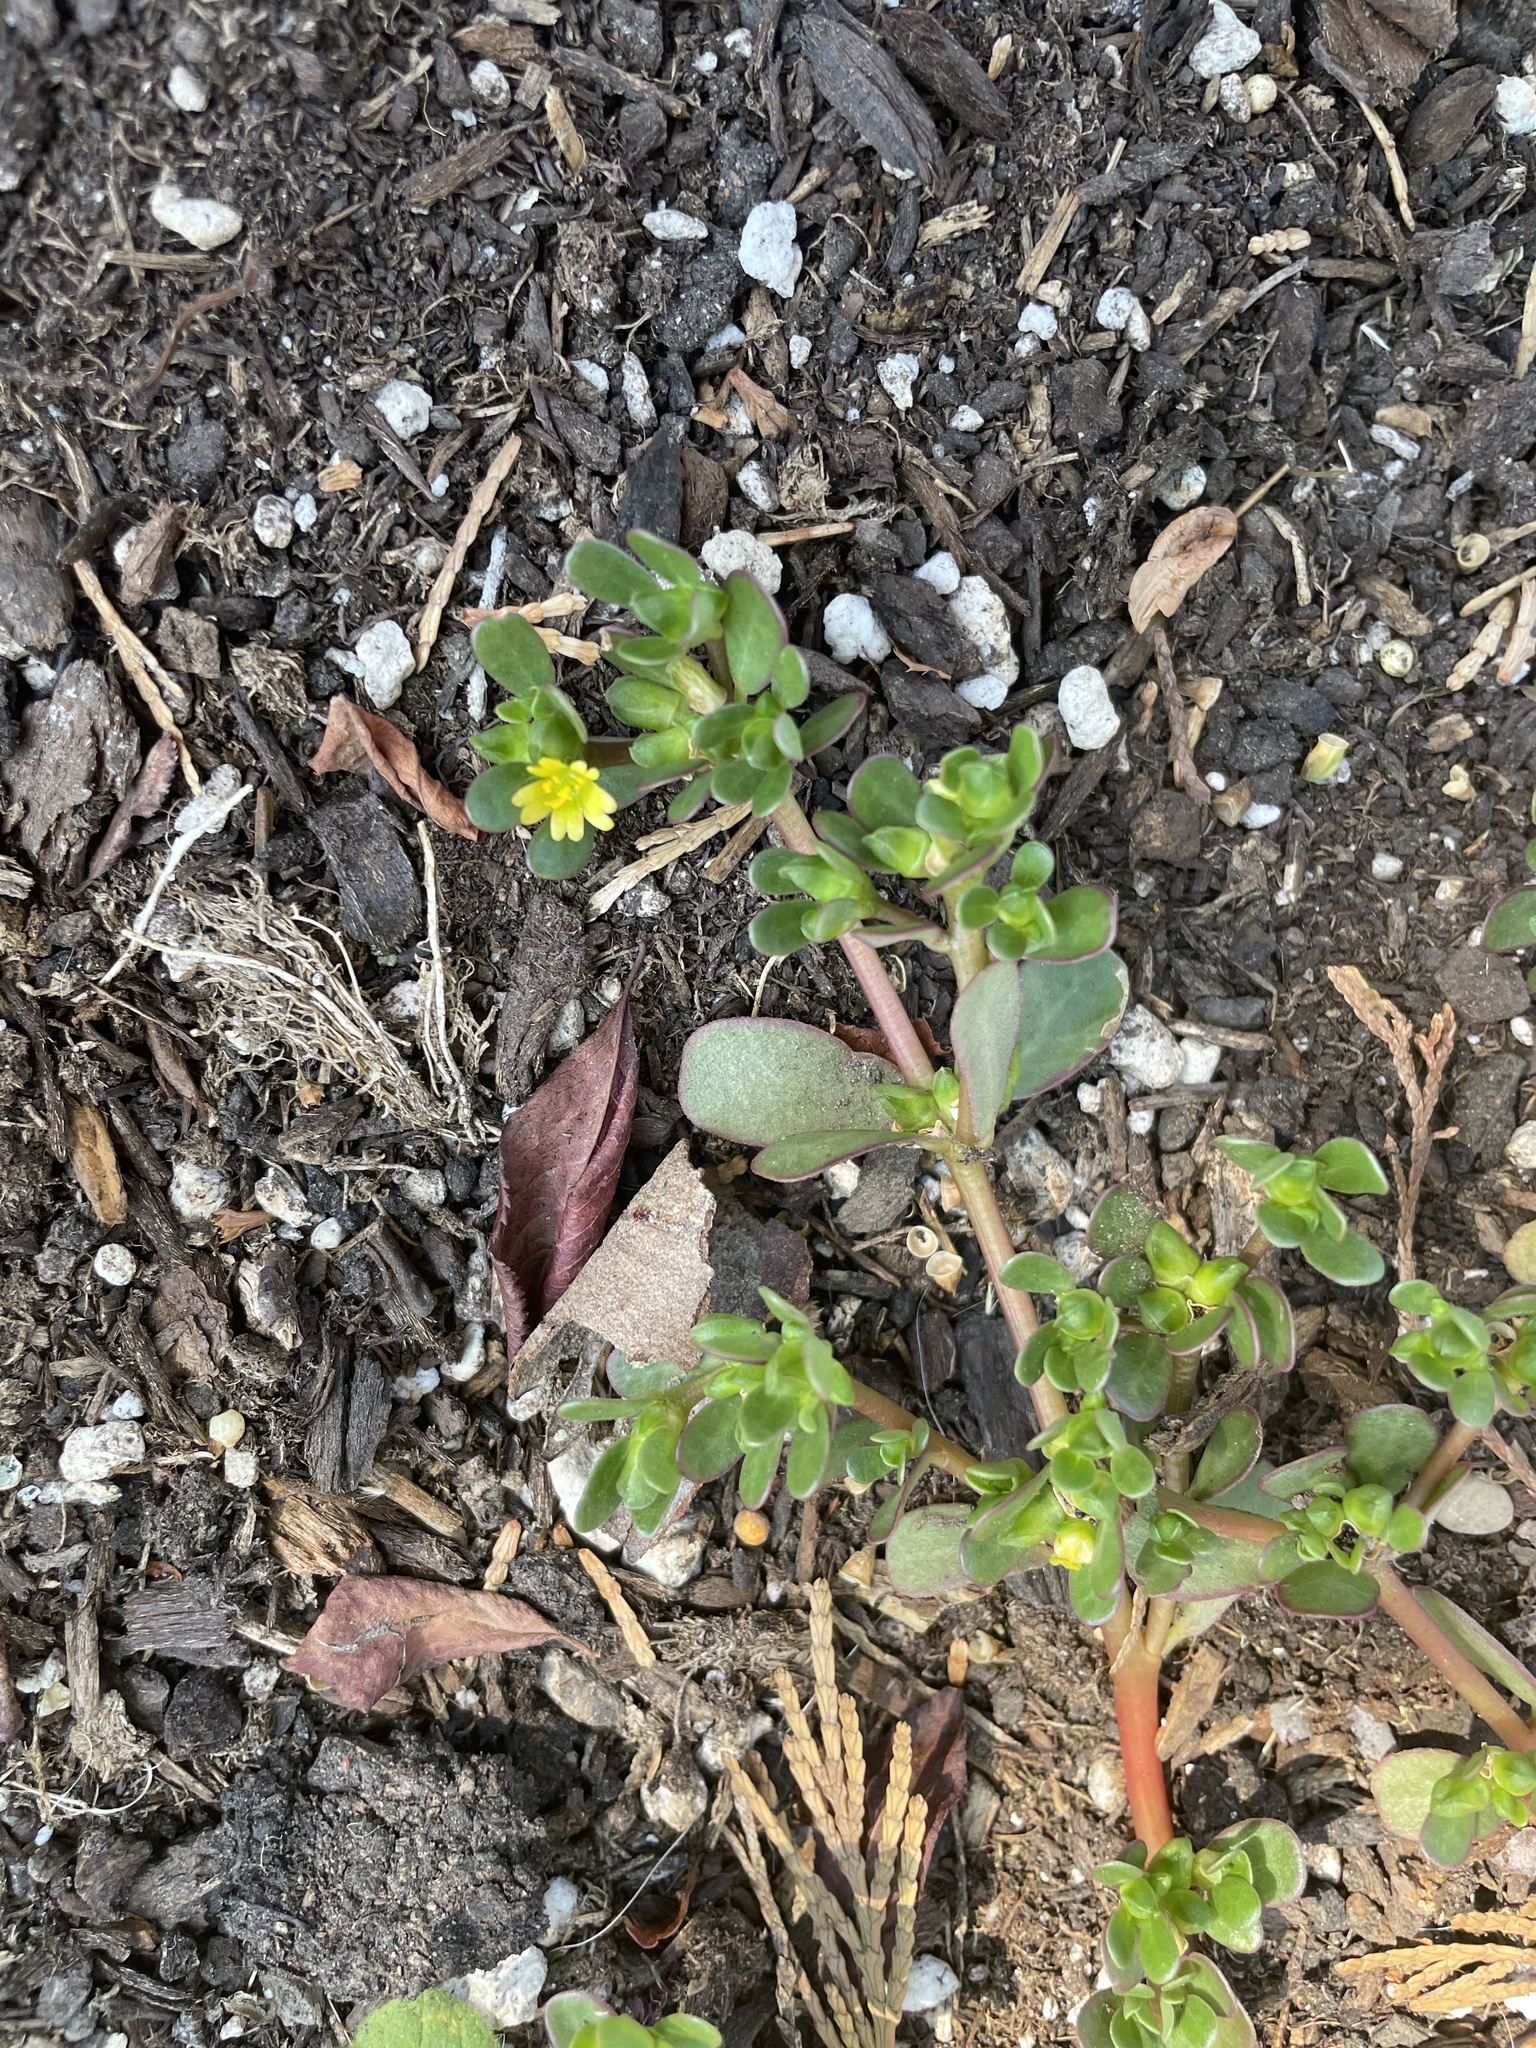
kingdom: Plantae
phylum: Tracheophyta
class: Magnoliopsida
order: Caryophyllales
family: Portulacaceae
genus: Portulaca
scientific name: Portulaca oleracea
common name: Common purslane
